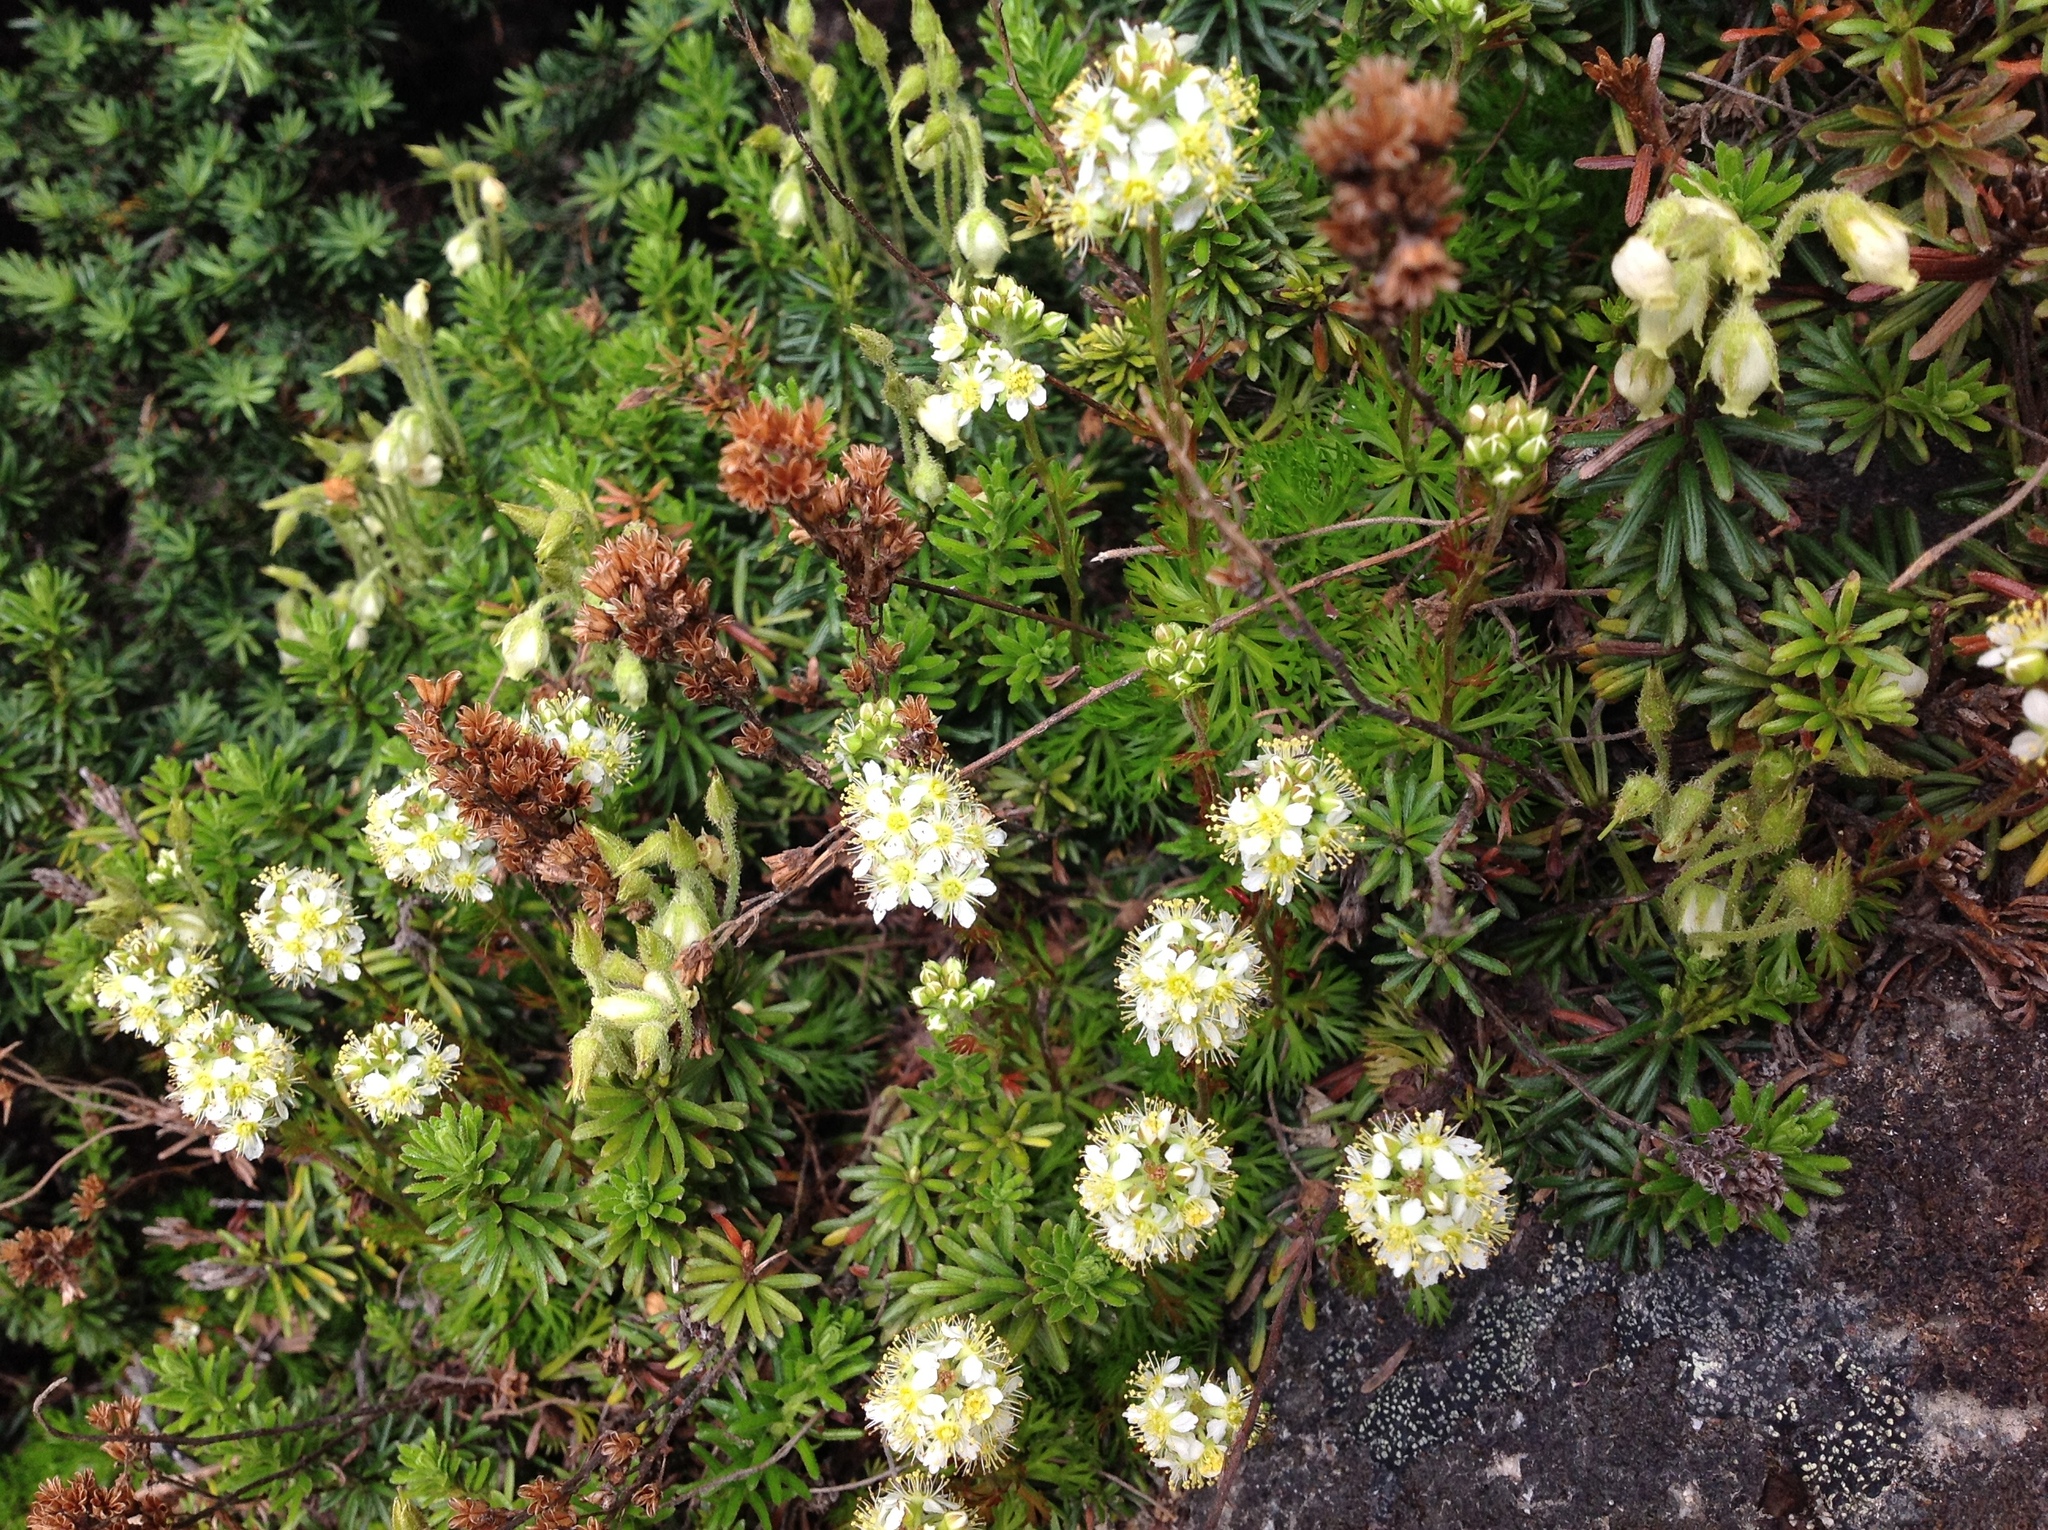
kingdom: Plantae
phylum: Tracheophyta
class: Magnoliopsida
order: Rosales
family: Rosaceae
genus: Luetkea
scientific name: Luetkea pectinata
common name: Partridgefoot
